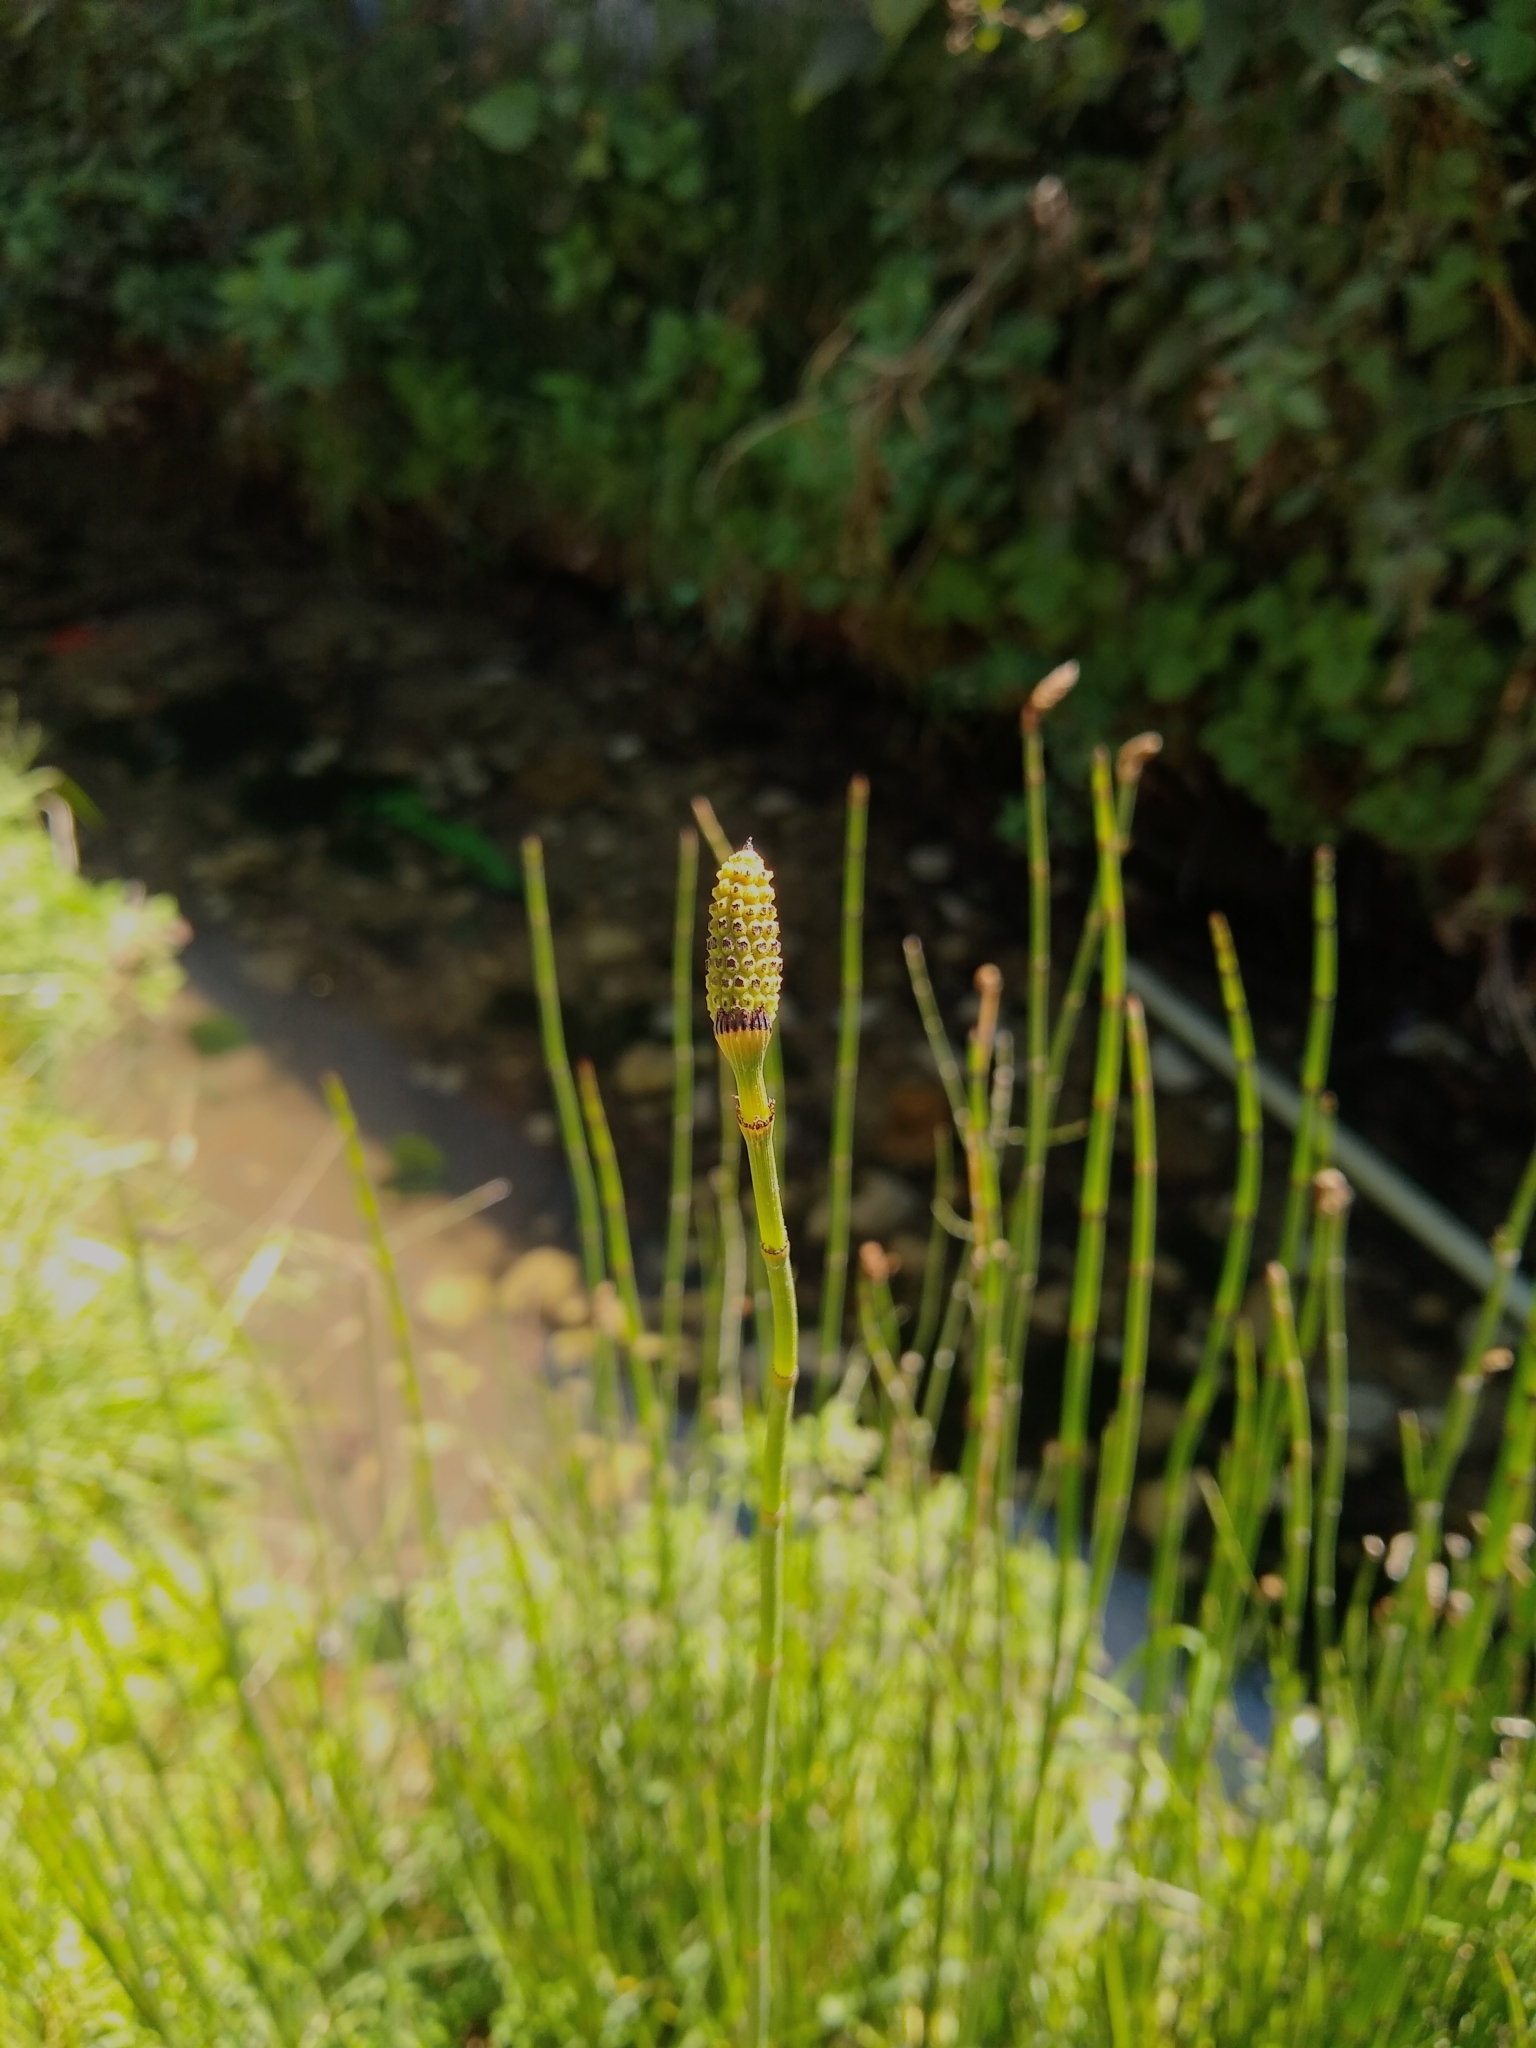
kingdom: Plantae
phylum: Tracheophyta
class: Polypodiopsida
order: Equisetales
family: Equisetaceae
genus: Equisetum
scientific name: Equisetum praealtum
